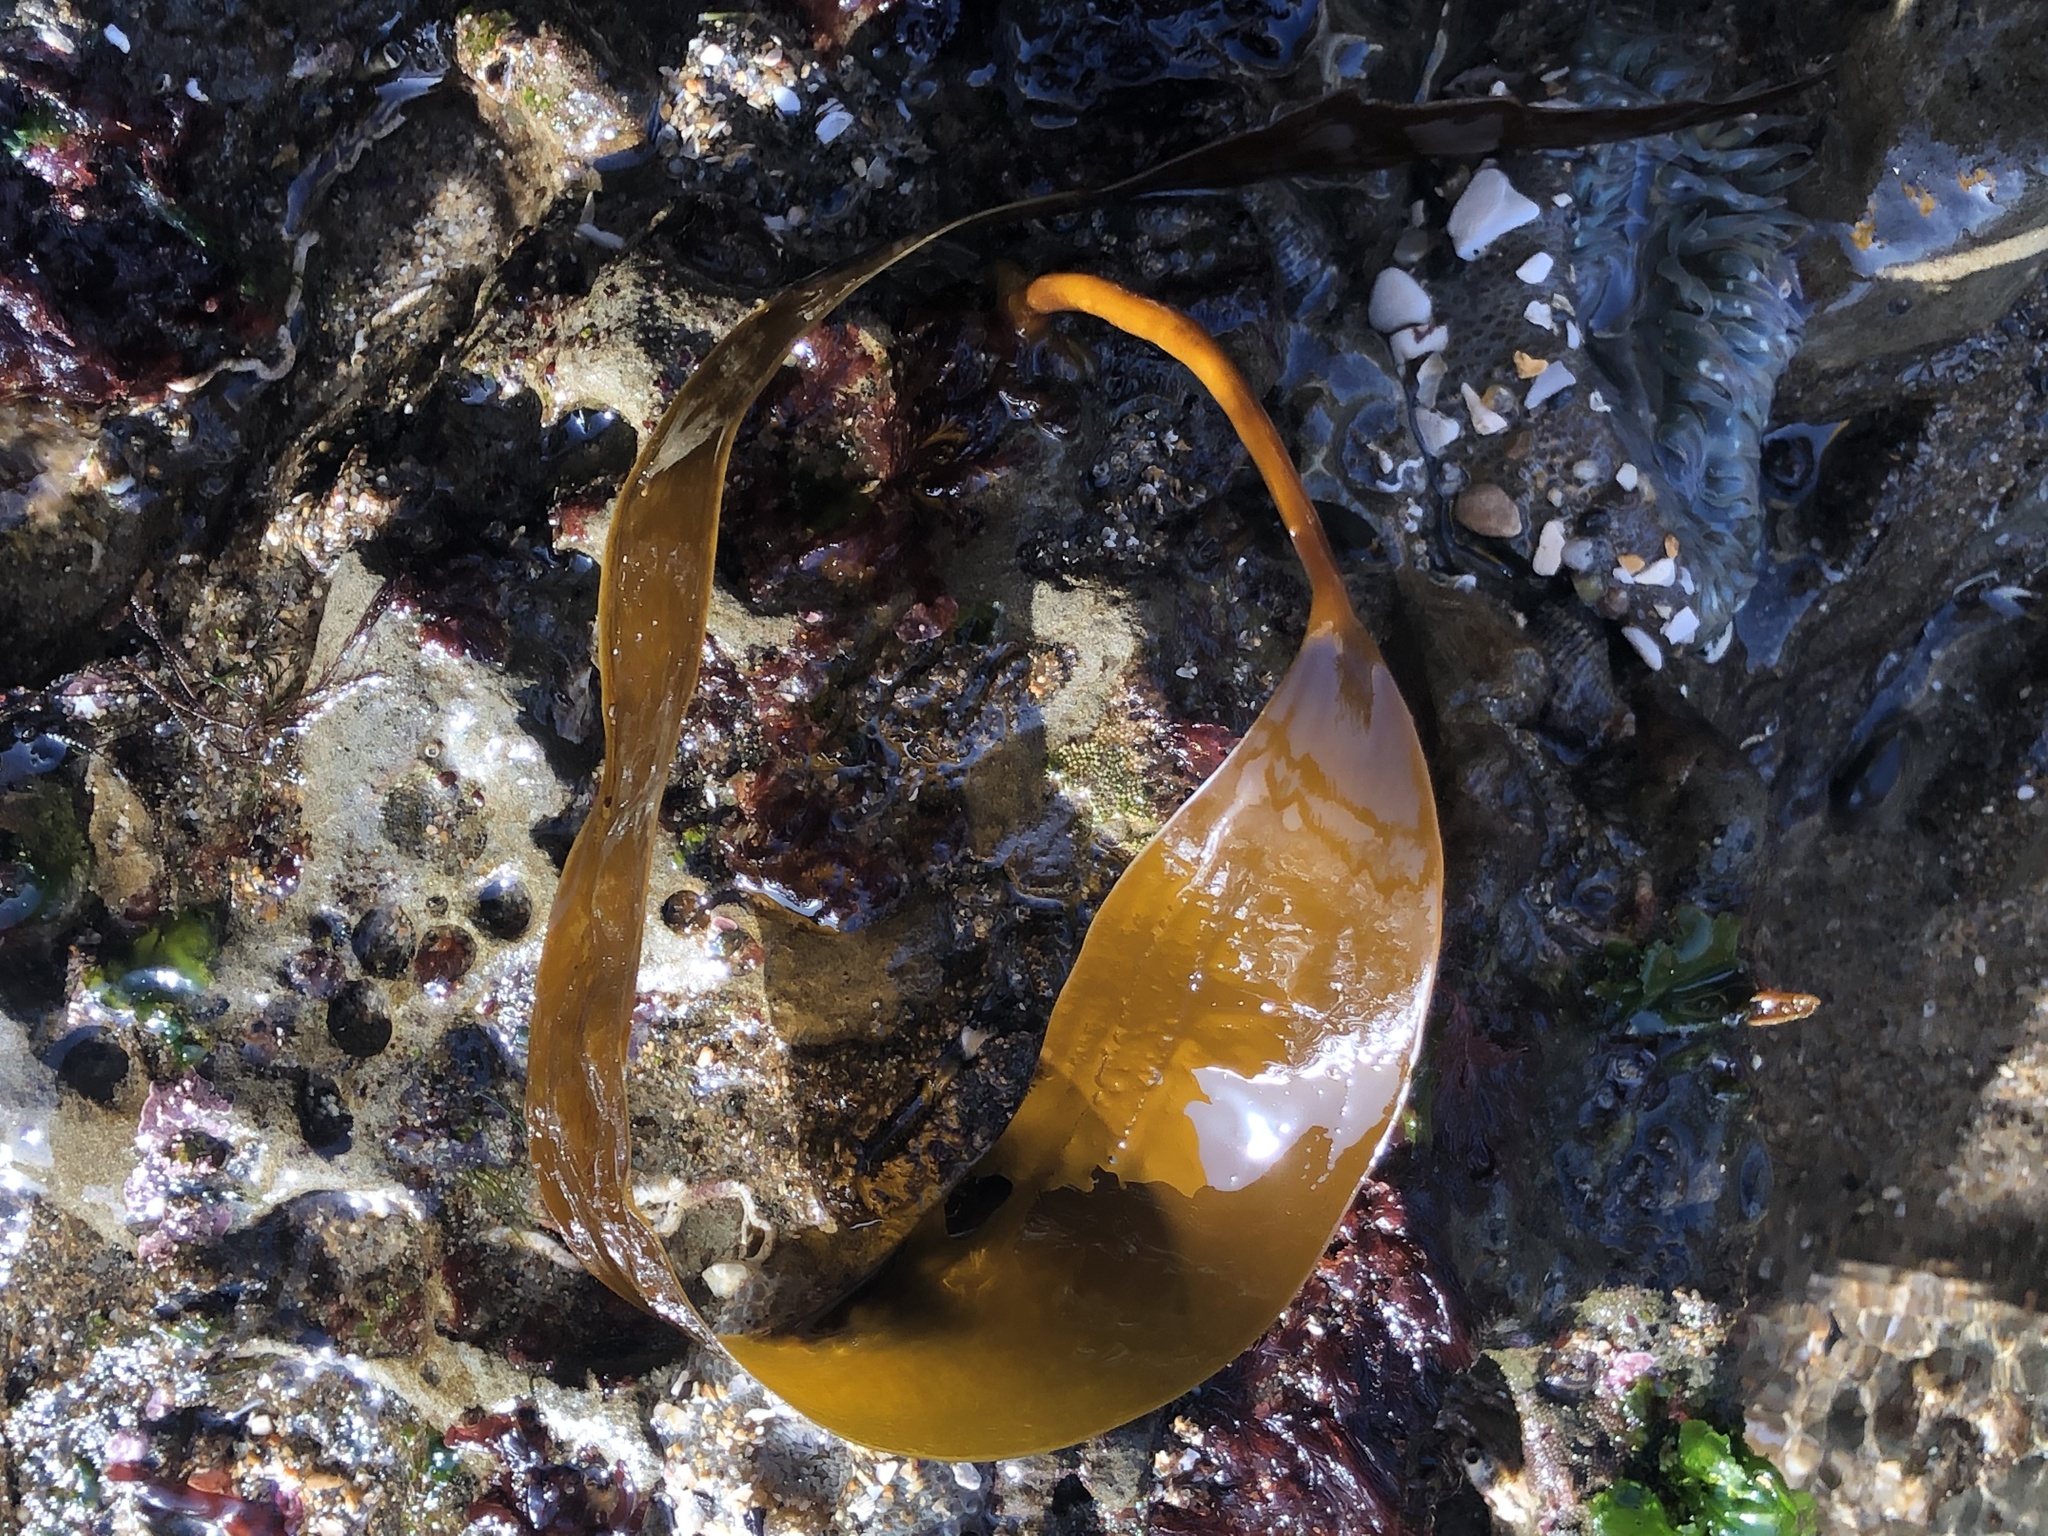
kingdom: Chromista
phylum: Ochrophyta
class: Phaeophyceae
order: Laminariales
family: Laminariaceae
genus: Laminaria
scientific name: Laminaria setchellii
